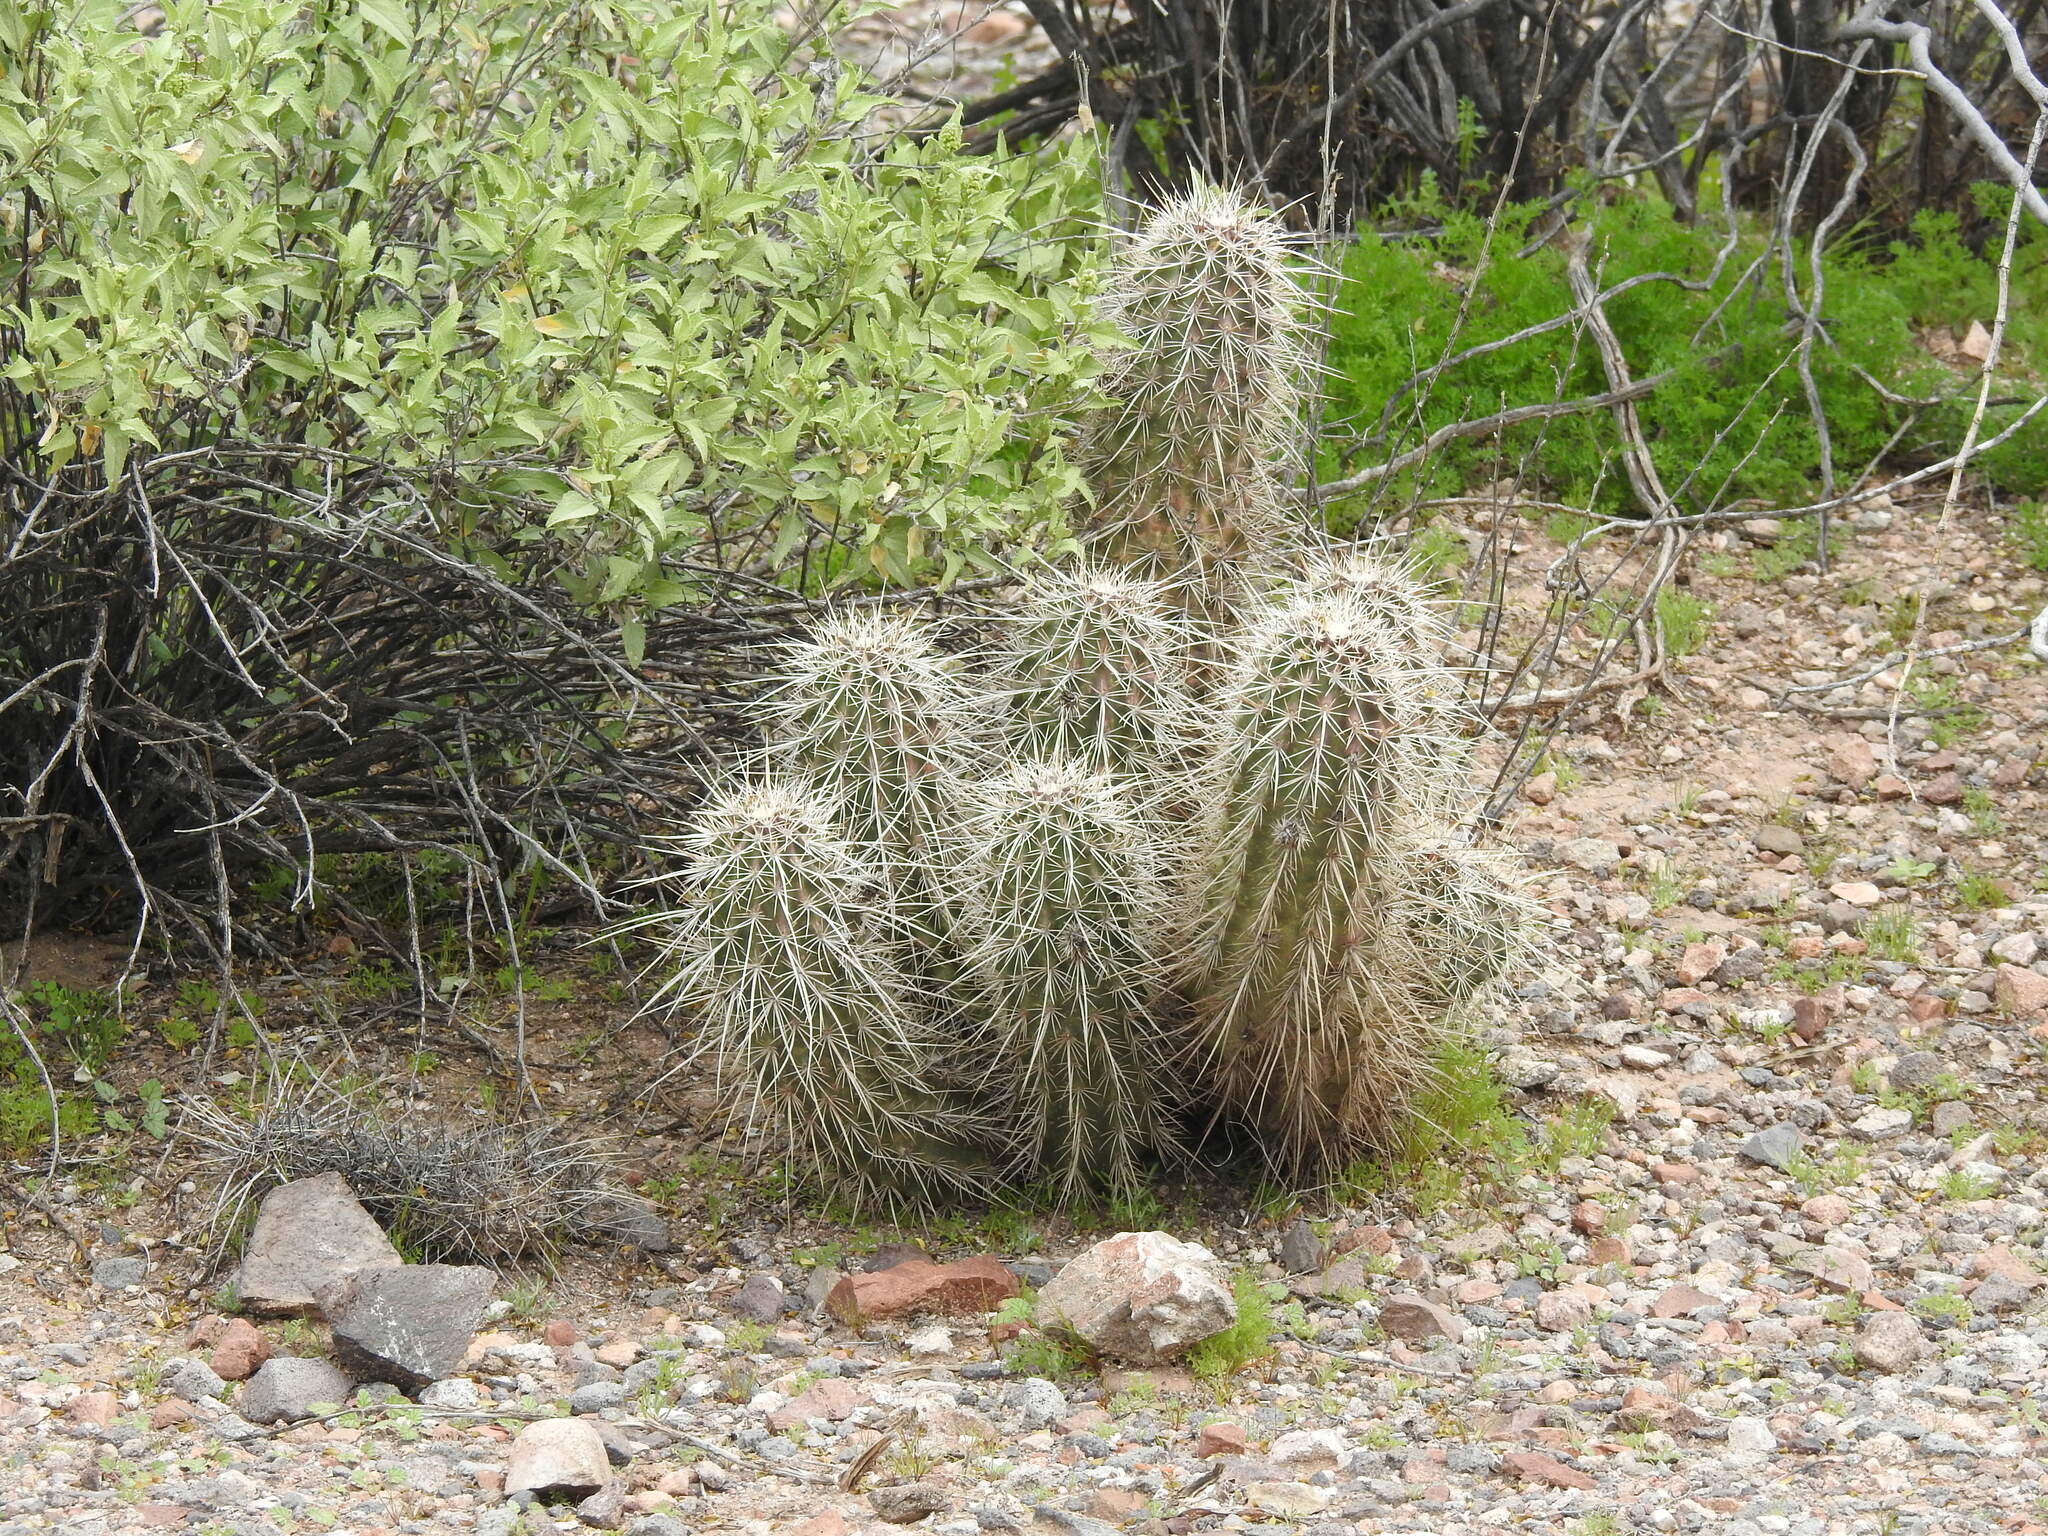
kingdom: Plantae
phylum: Tracheophyta
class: Magnoliopsida
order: Caryophyllales
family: Cactaceae
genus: Echinocereus
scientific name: Echinocereus engelmannii
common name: Engelmann's hedgehog cactus
